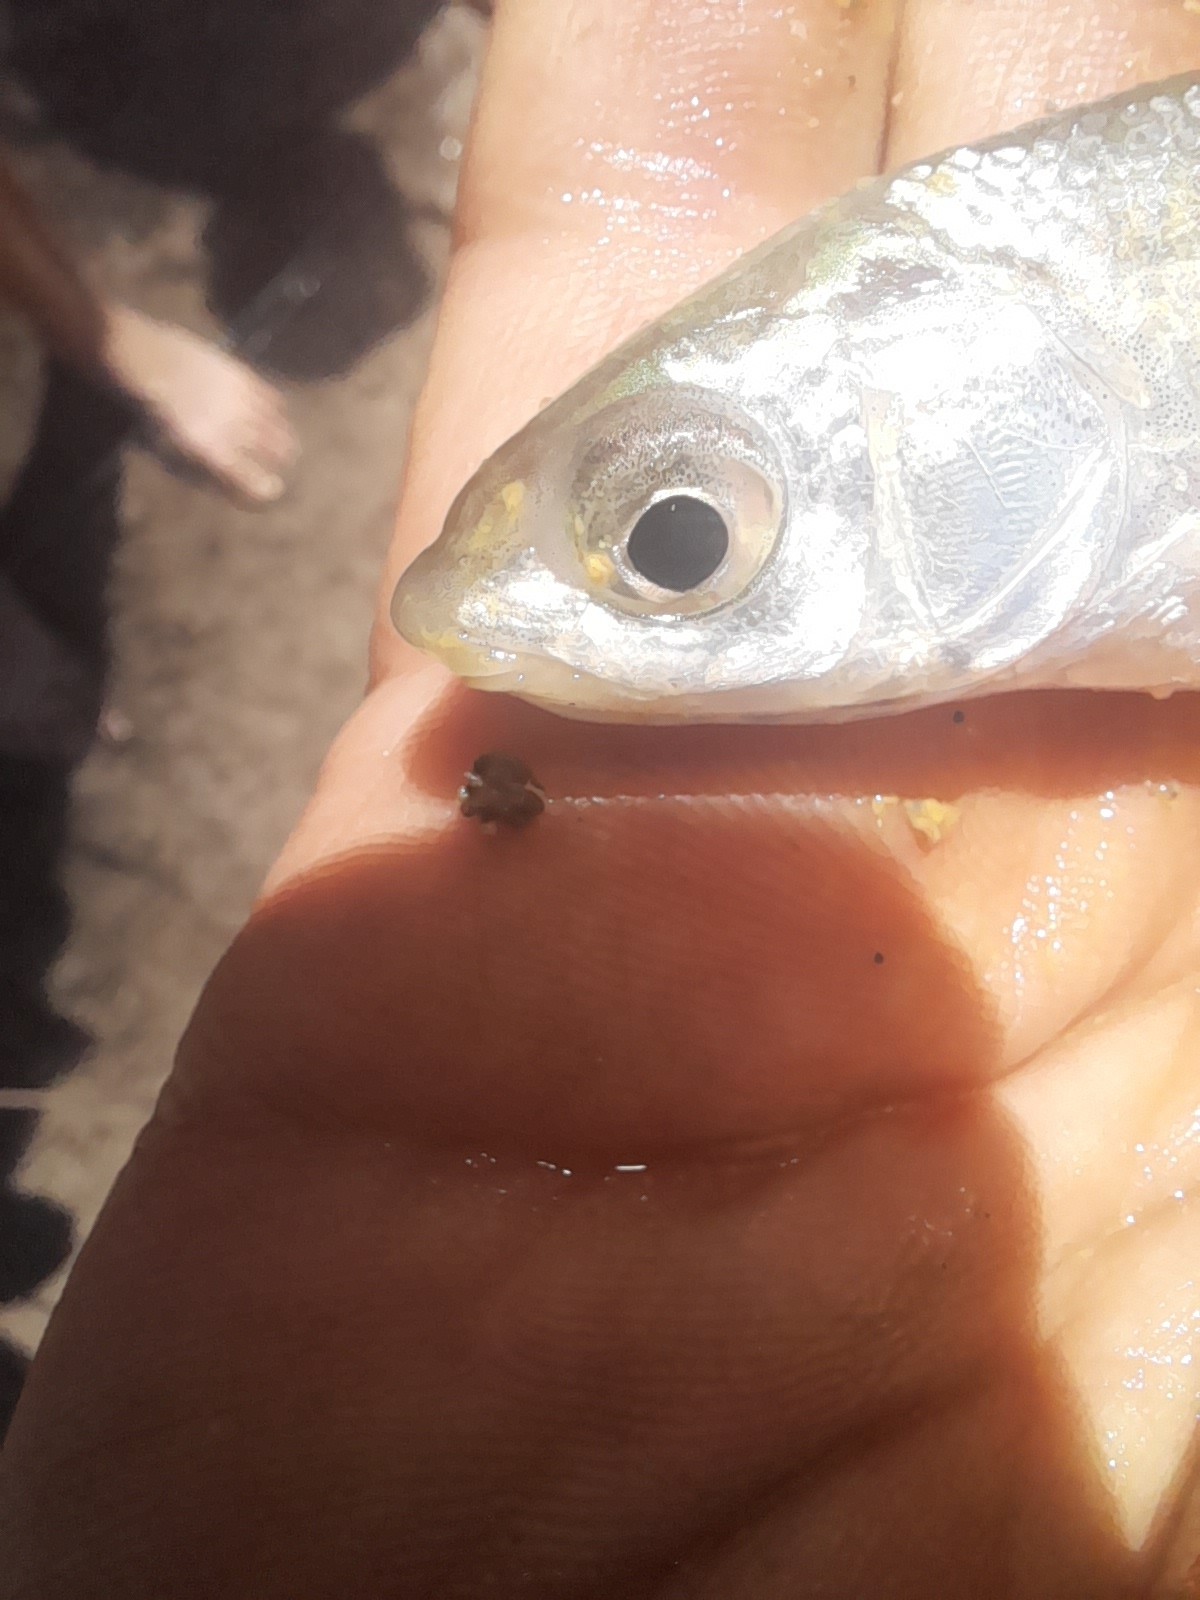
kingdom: Animalia
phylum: Chordata
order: Cypriniformes
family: Cyprinidae
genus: Protochondrostoma
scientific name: Protochondrostoma genei
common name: South european nase
